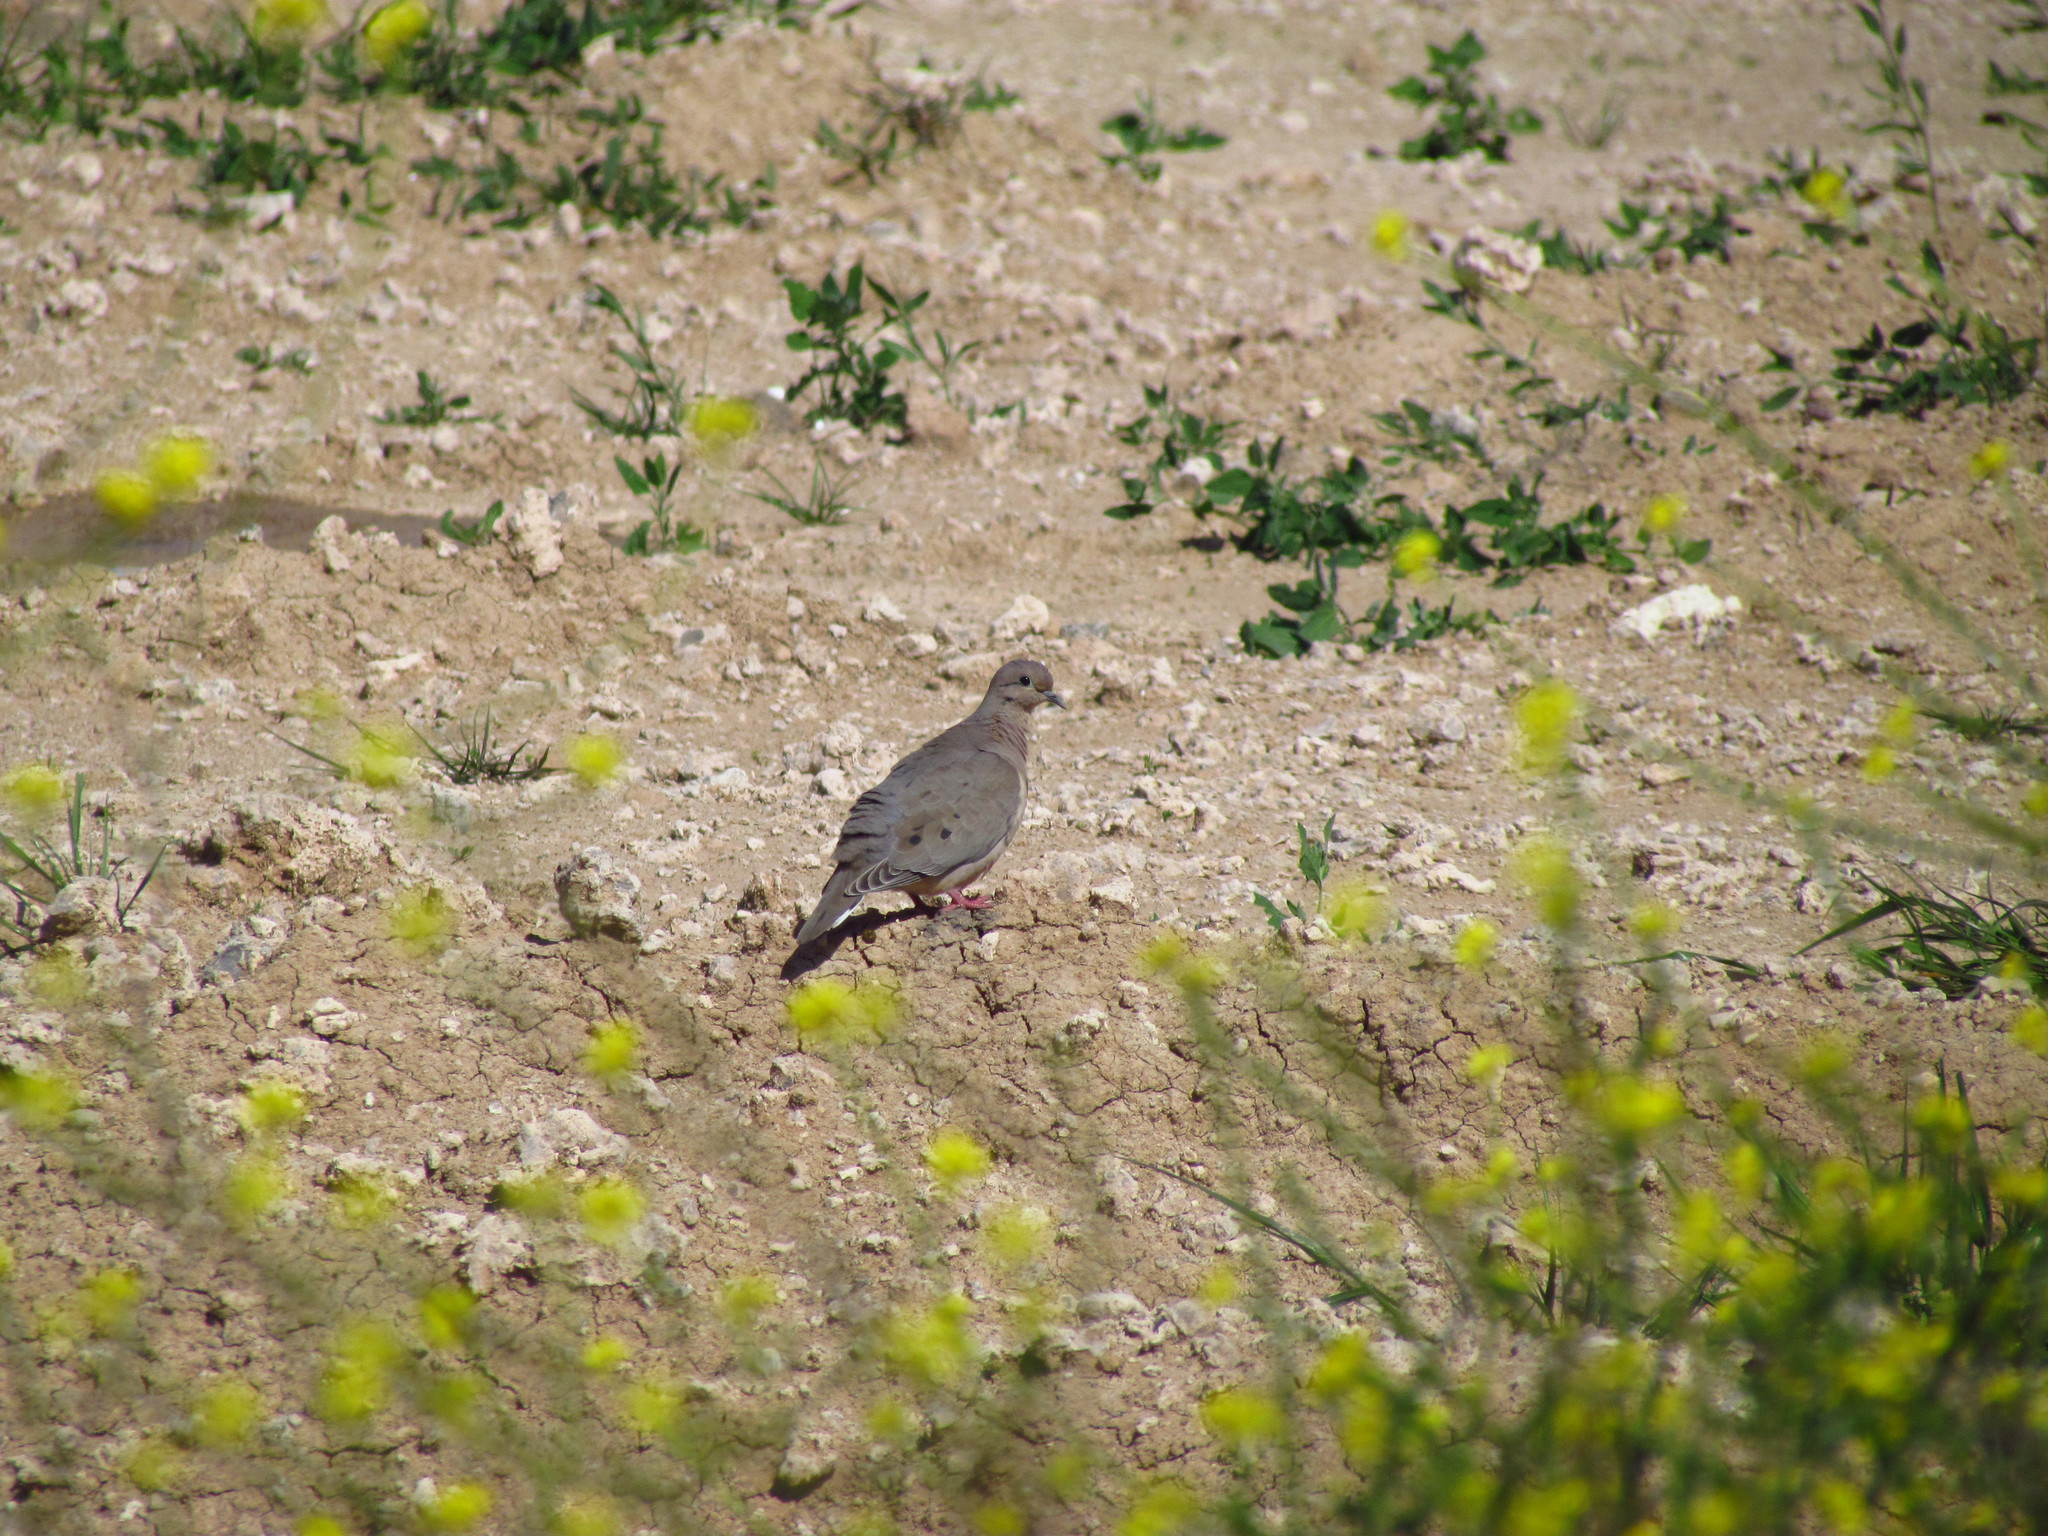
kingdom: Animalia
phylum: Chordata
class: Aves
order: Columbiformes
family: Columbidae
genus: Zenaida
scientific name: Zenaida auriculata
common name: Eared dove
